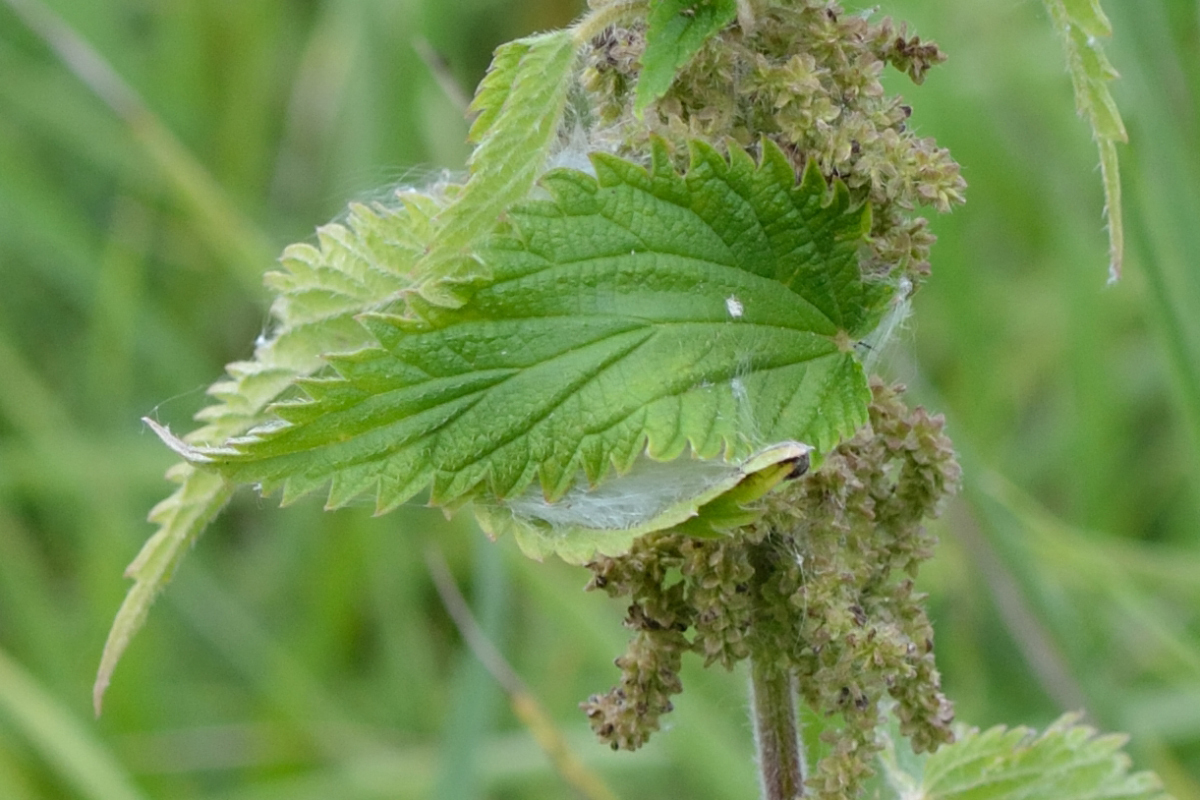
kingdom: Plantae
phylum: Tracheophyta
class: Magnoliopsida
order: Rosales
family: Urticaceae
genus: Urtica
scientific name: Urtica dioica
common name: Common nettle
